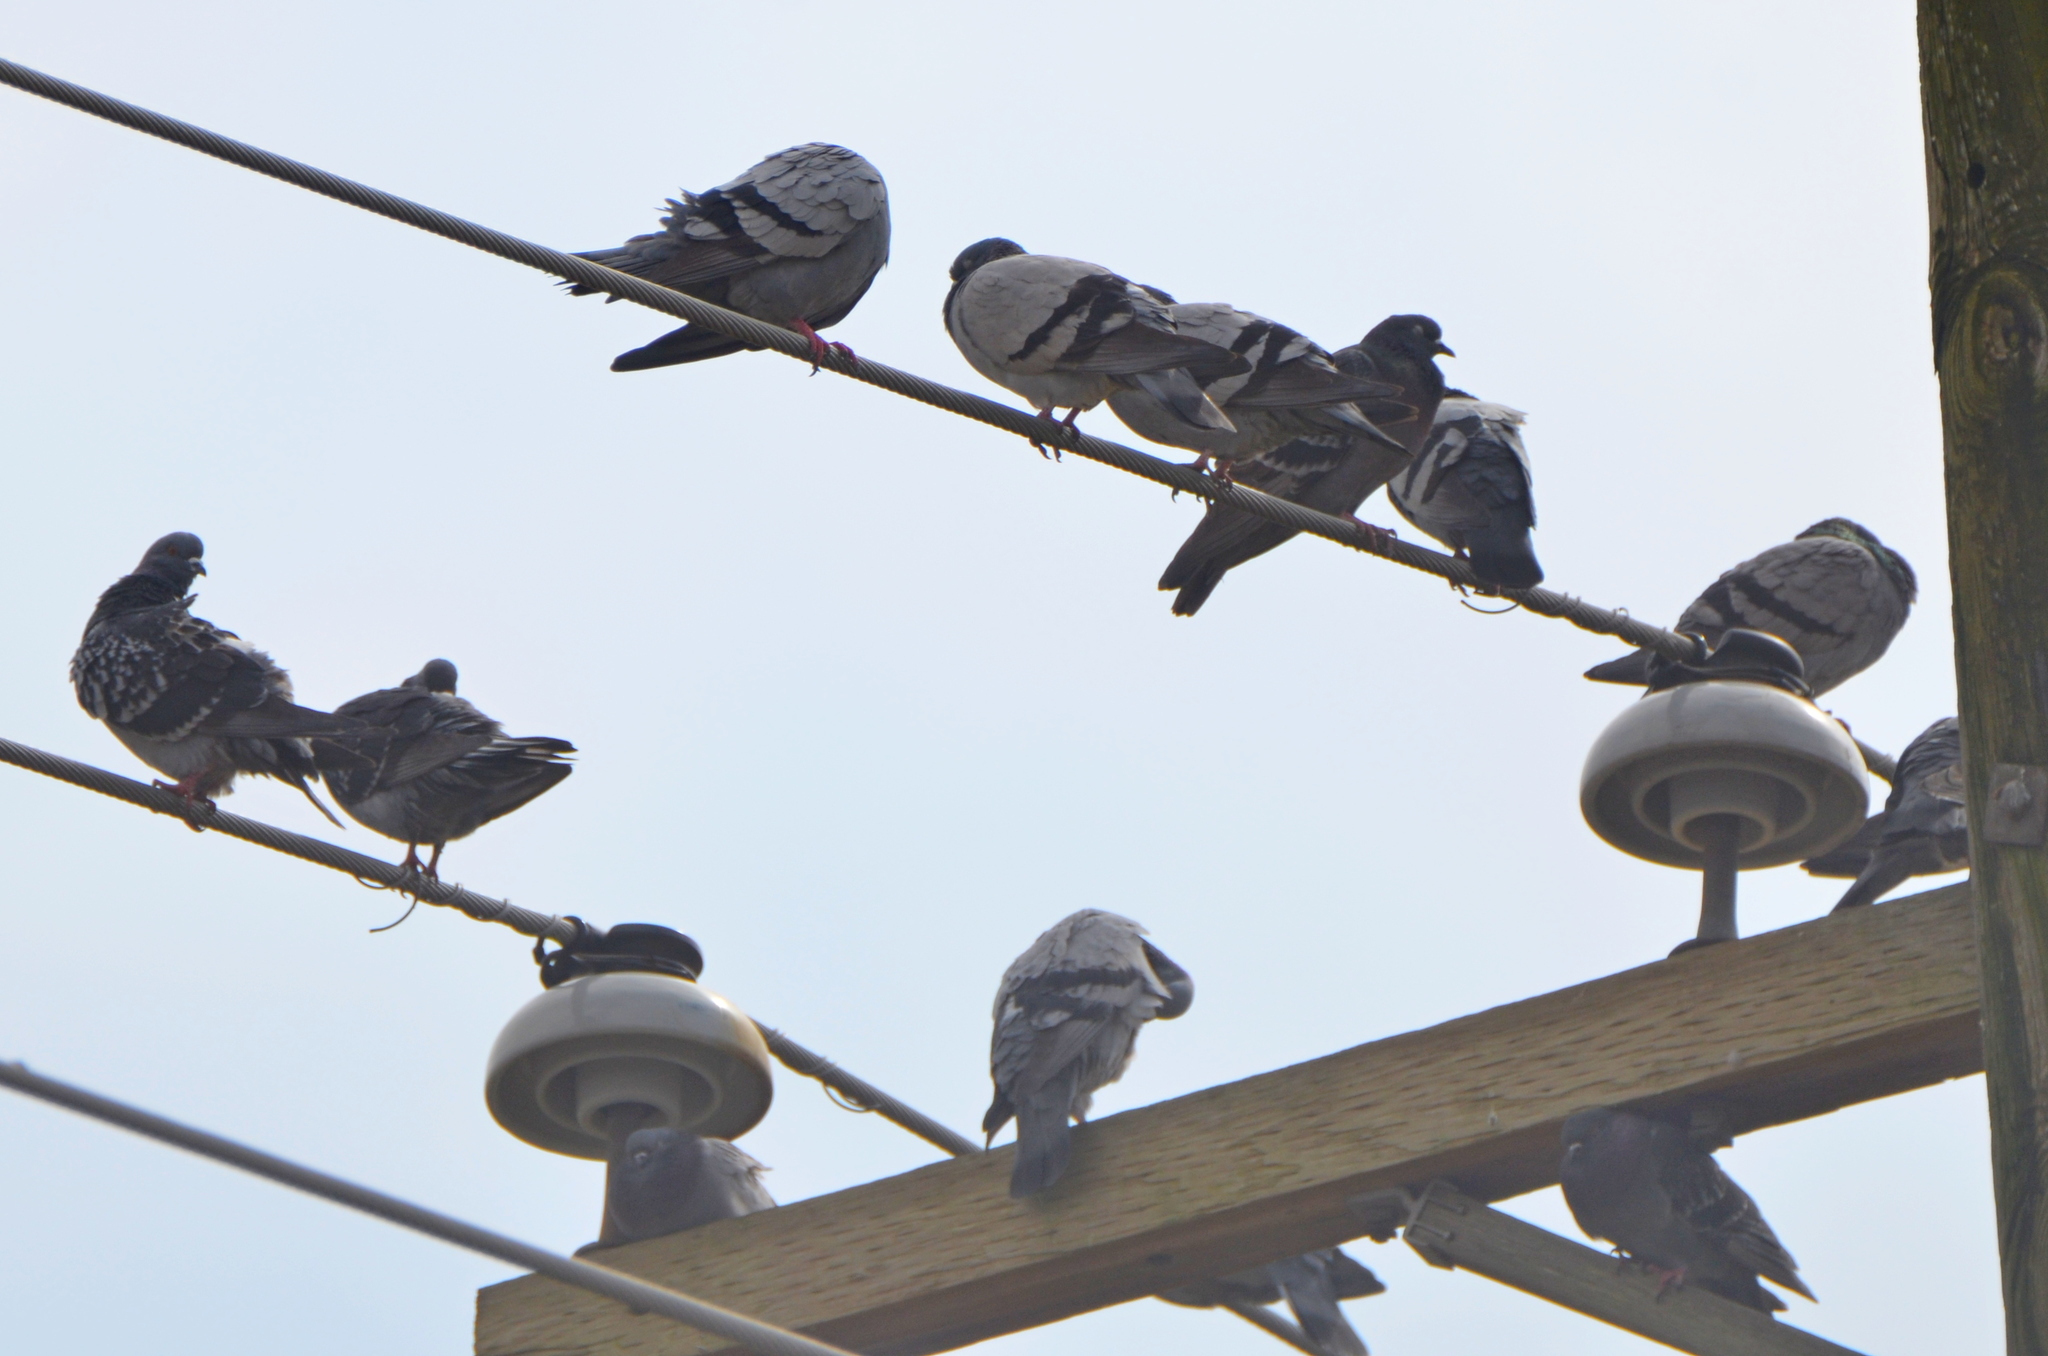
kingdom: Animalia
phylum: Chordata
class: Aves
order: Columbiformes
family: Columbidae
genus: Columba
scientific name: Columba livia
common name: Rock pigeon
